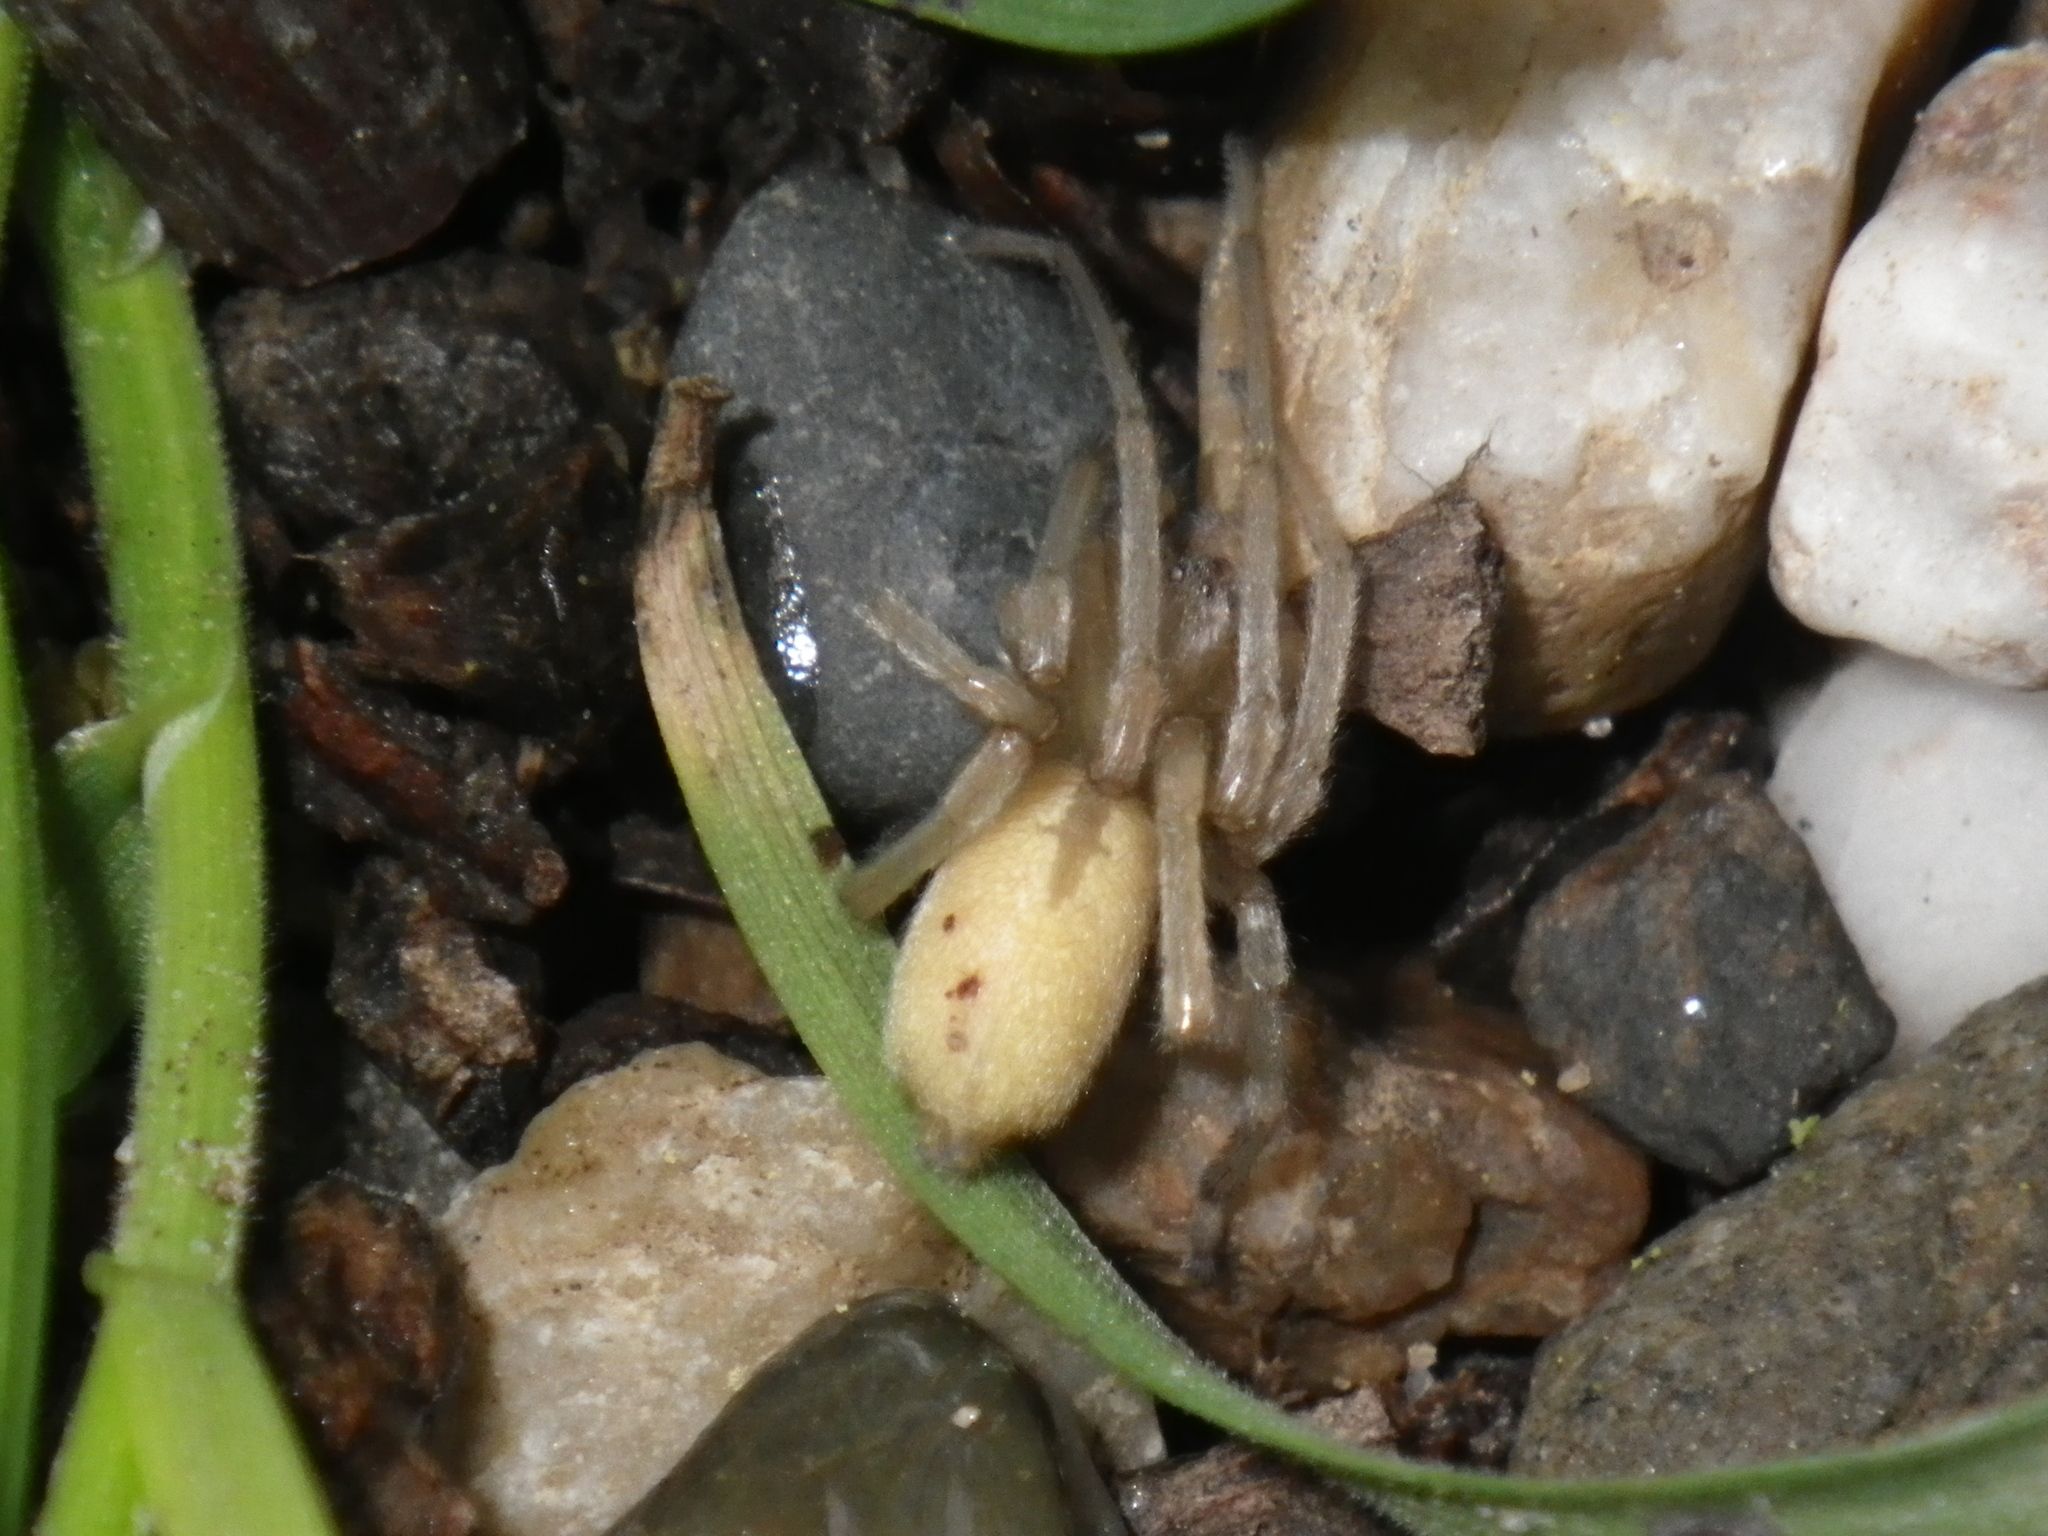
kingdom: Animalia
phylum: Arthropoda
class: Arachnida
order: Araneae
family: Cheiracanthiidae
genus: Cheiracanthium
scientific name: Cheiracanthium inclusum
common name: Long-legged sac spiders
